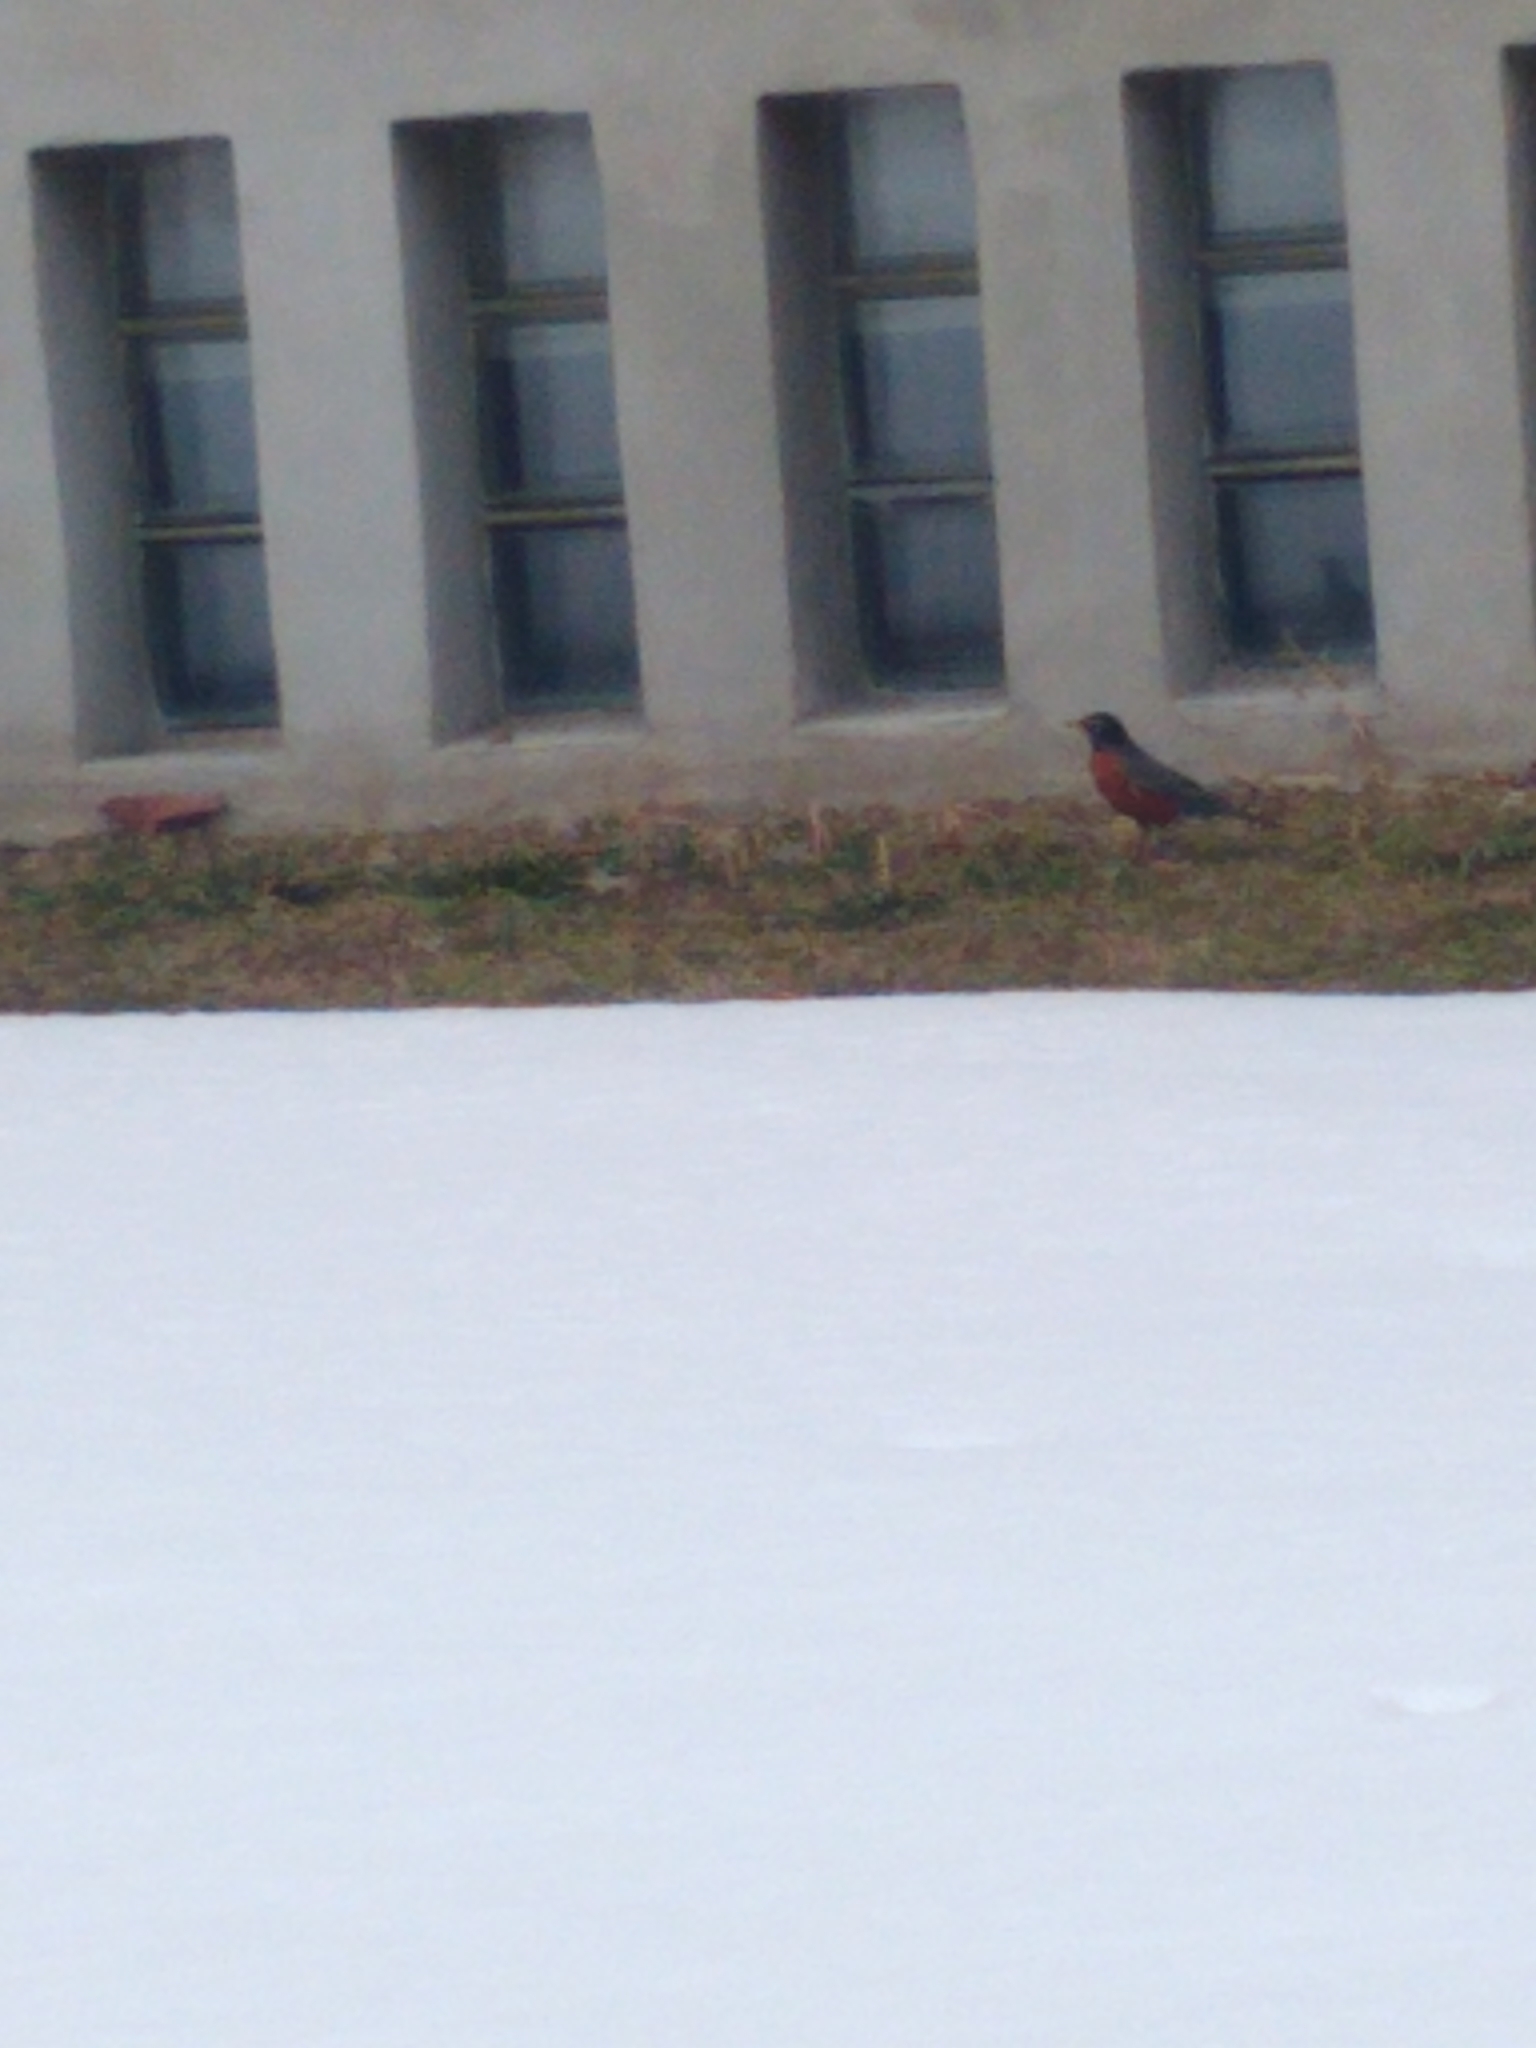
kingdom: Animalia
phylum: Chordata
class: Aves
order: Passeriformes
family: Turdidae
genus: Turdus
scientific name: Turdus migratorius
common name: American robin
